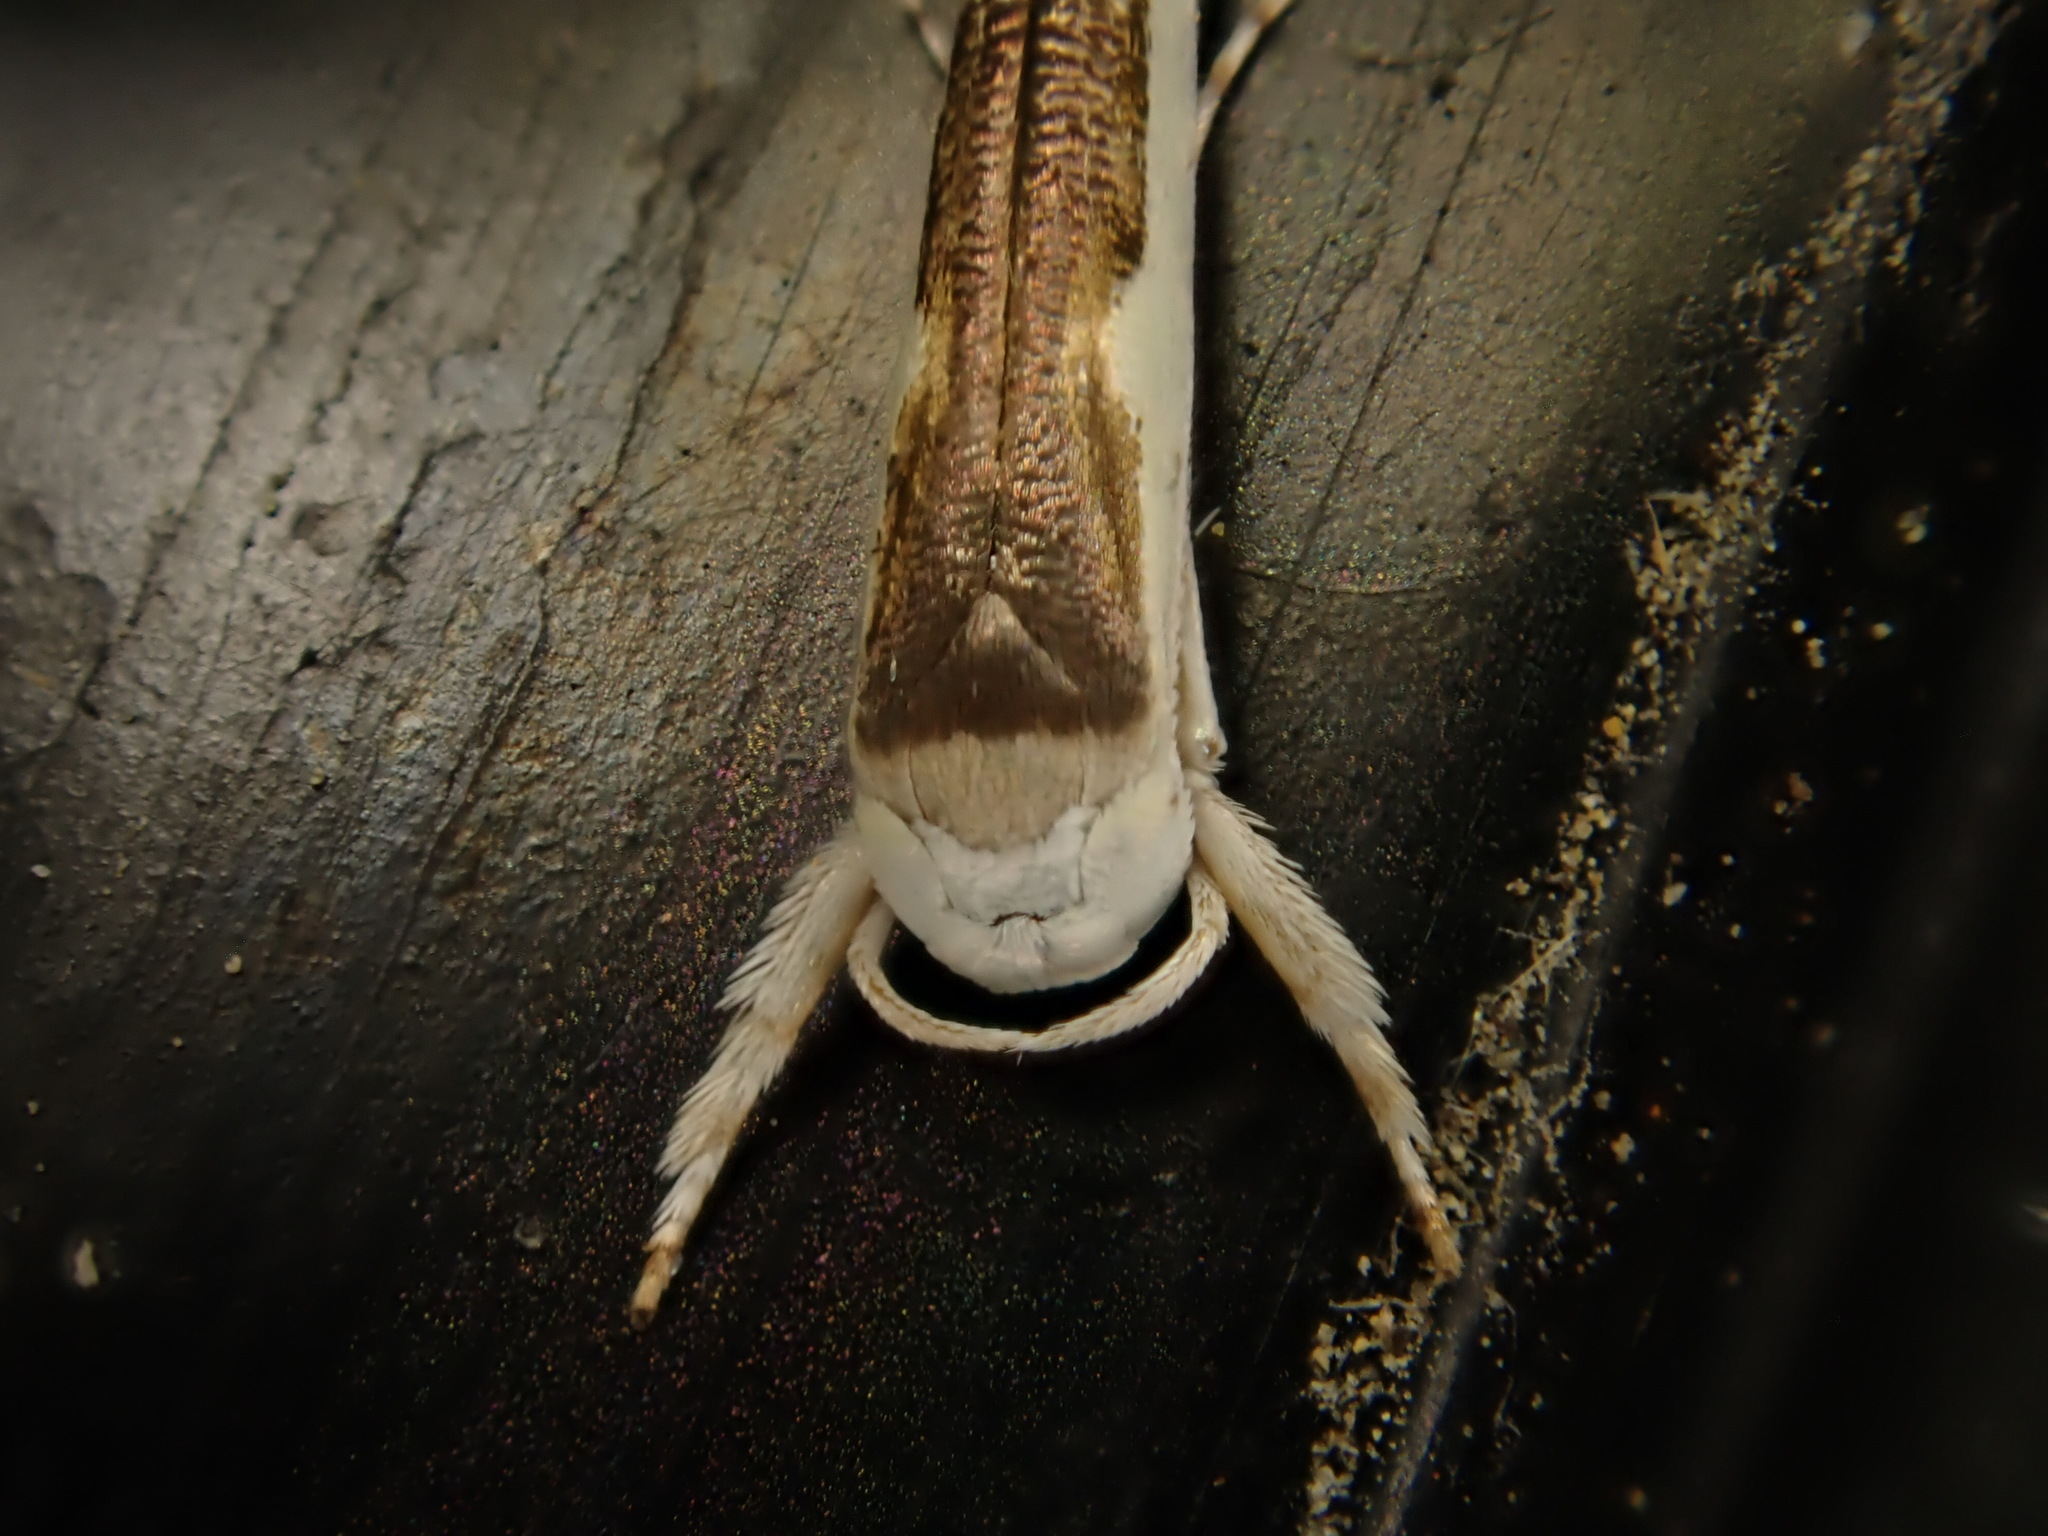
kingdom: Animalia
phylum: Arthropoda
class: Insecta
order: Lepidoptera
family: Roeslerstammiidae
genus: Vanicela
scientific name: Vanicela disjunctella
